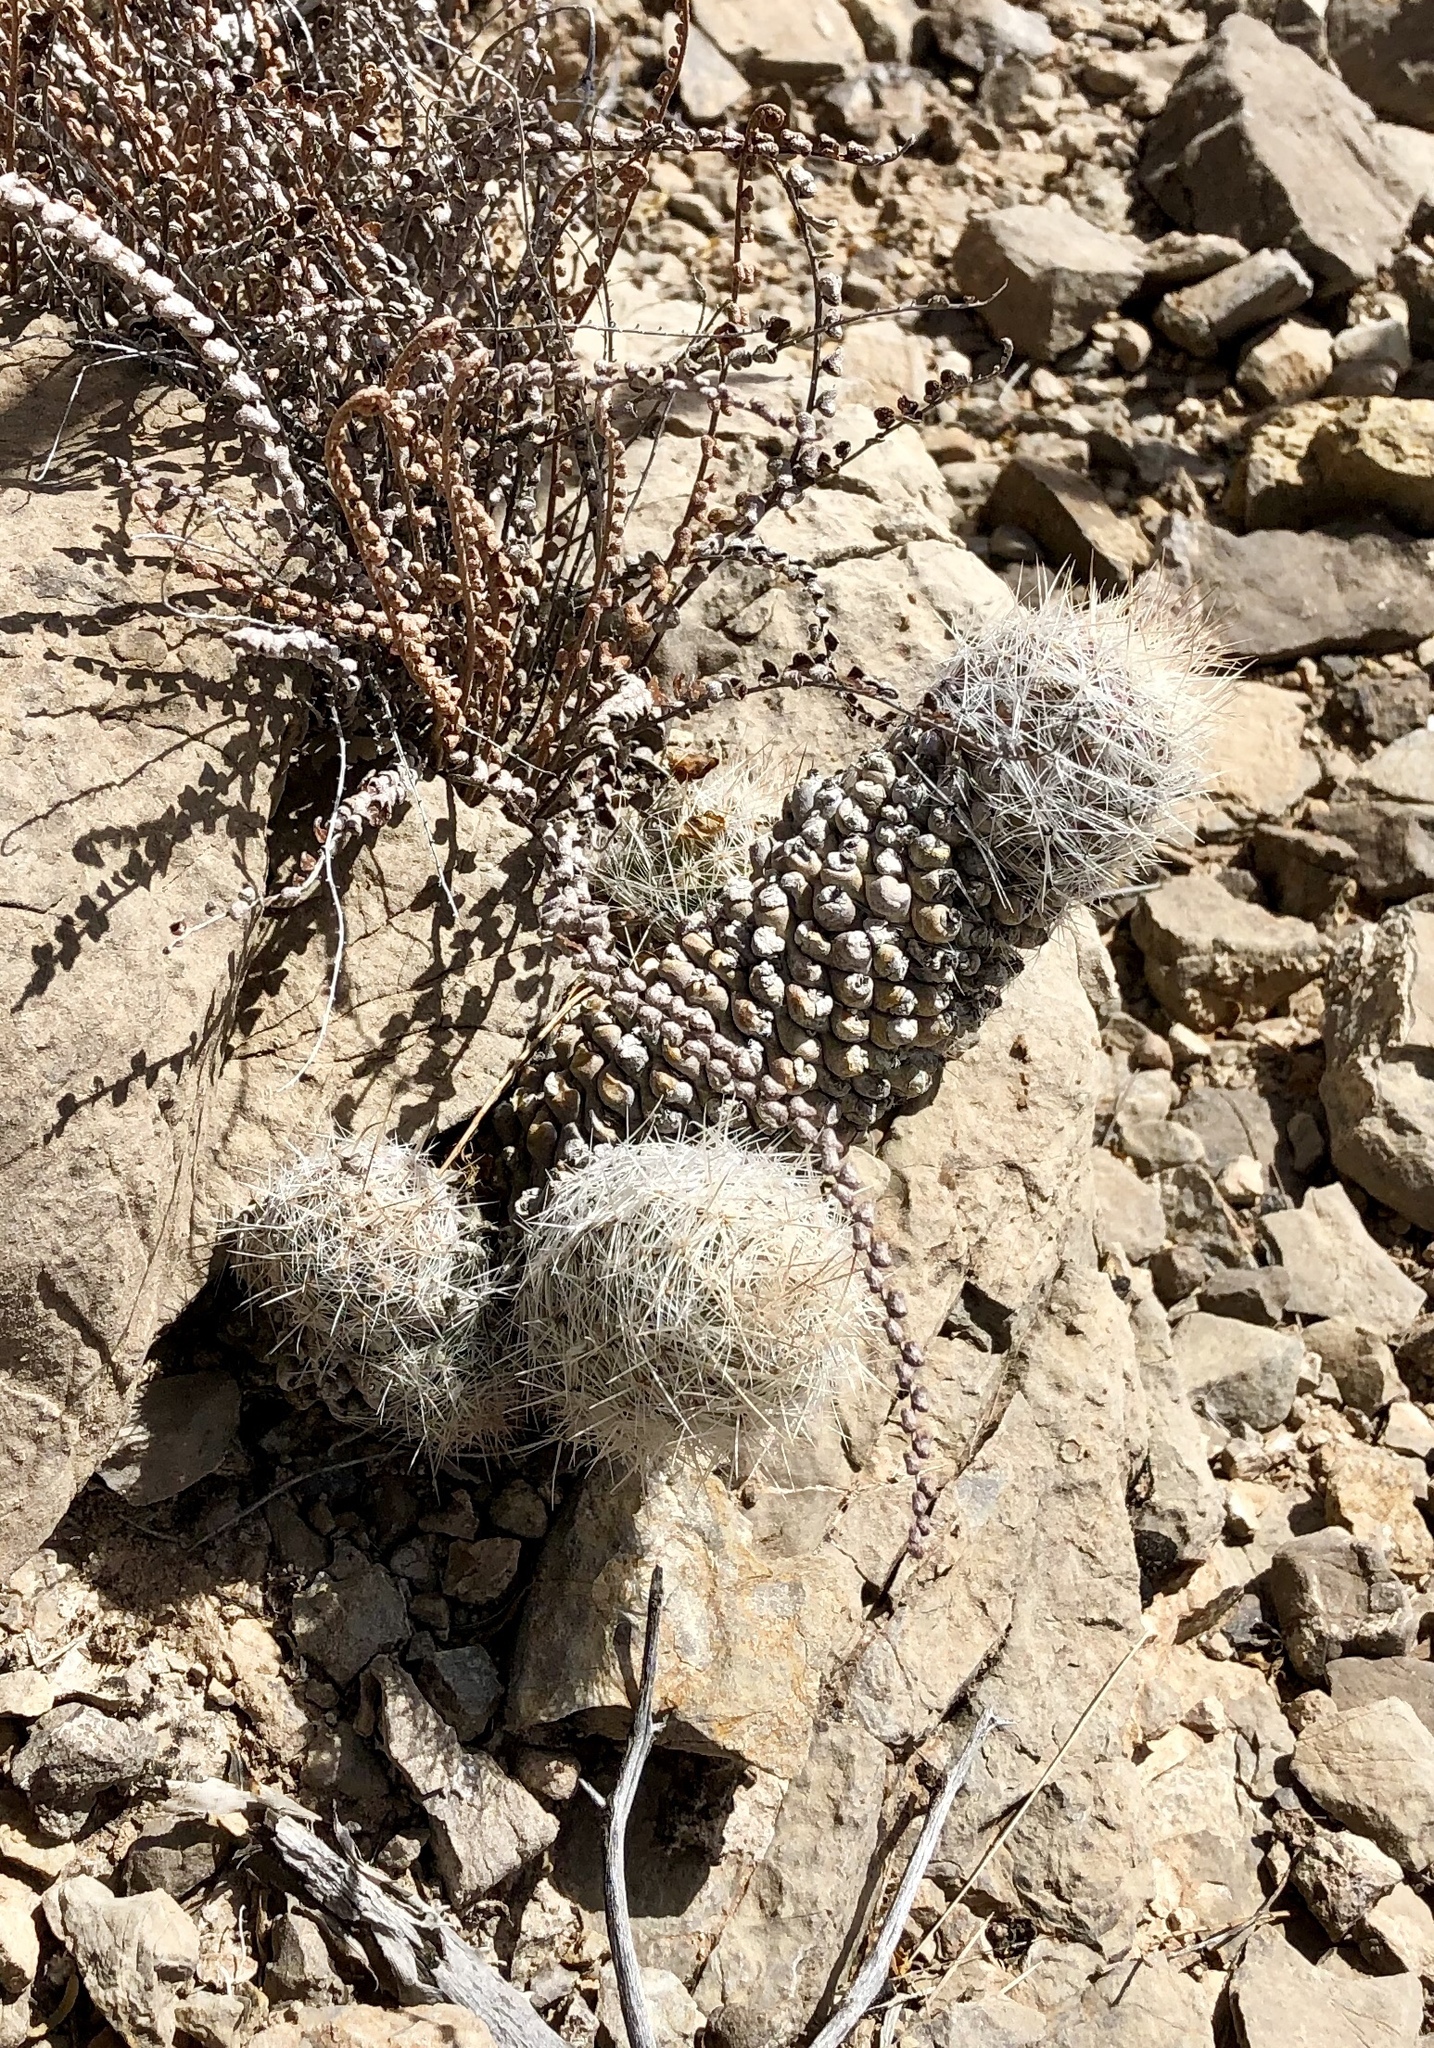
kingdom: Plantae
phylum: Tracheophyta
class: Magnoliopsida
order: Caryophyllales
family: Cactaceae
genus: Pelecyphora
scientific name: Pelecyphora tuberculosa
